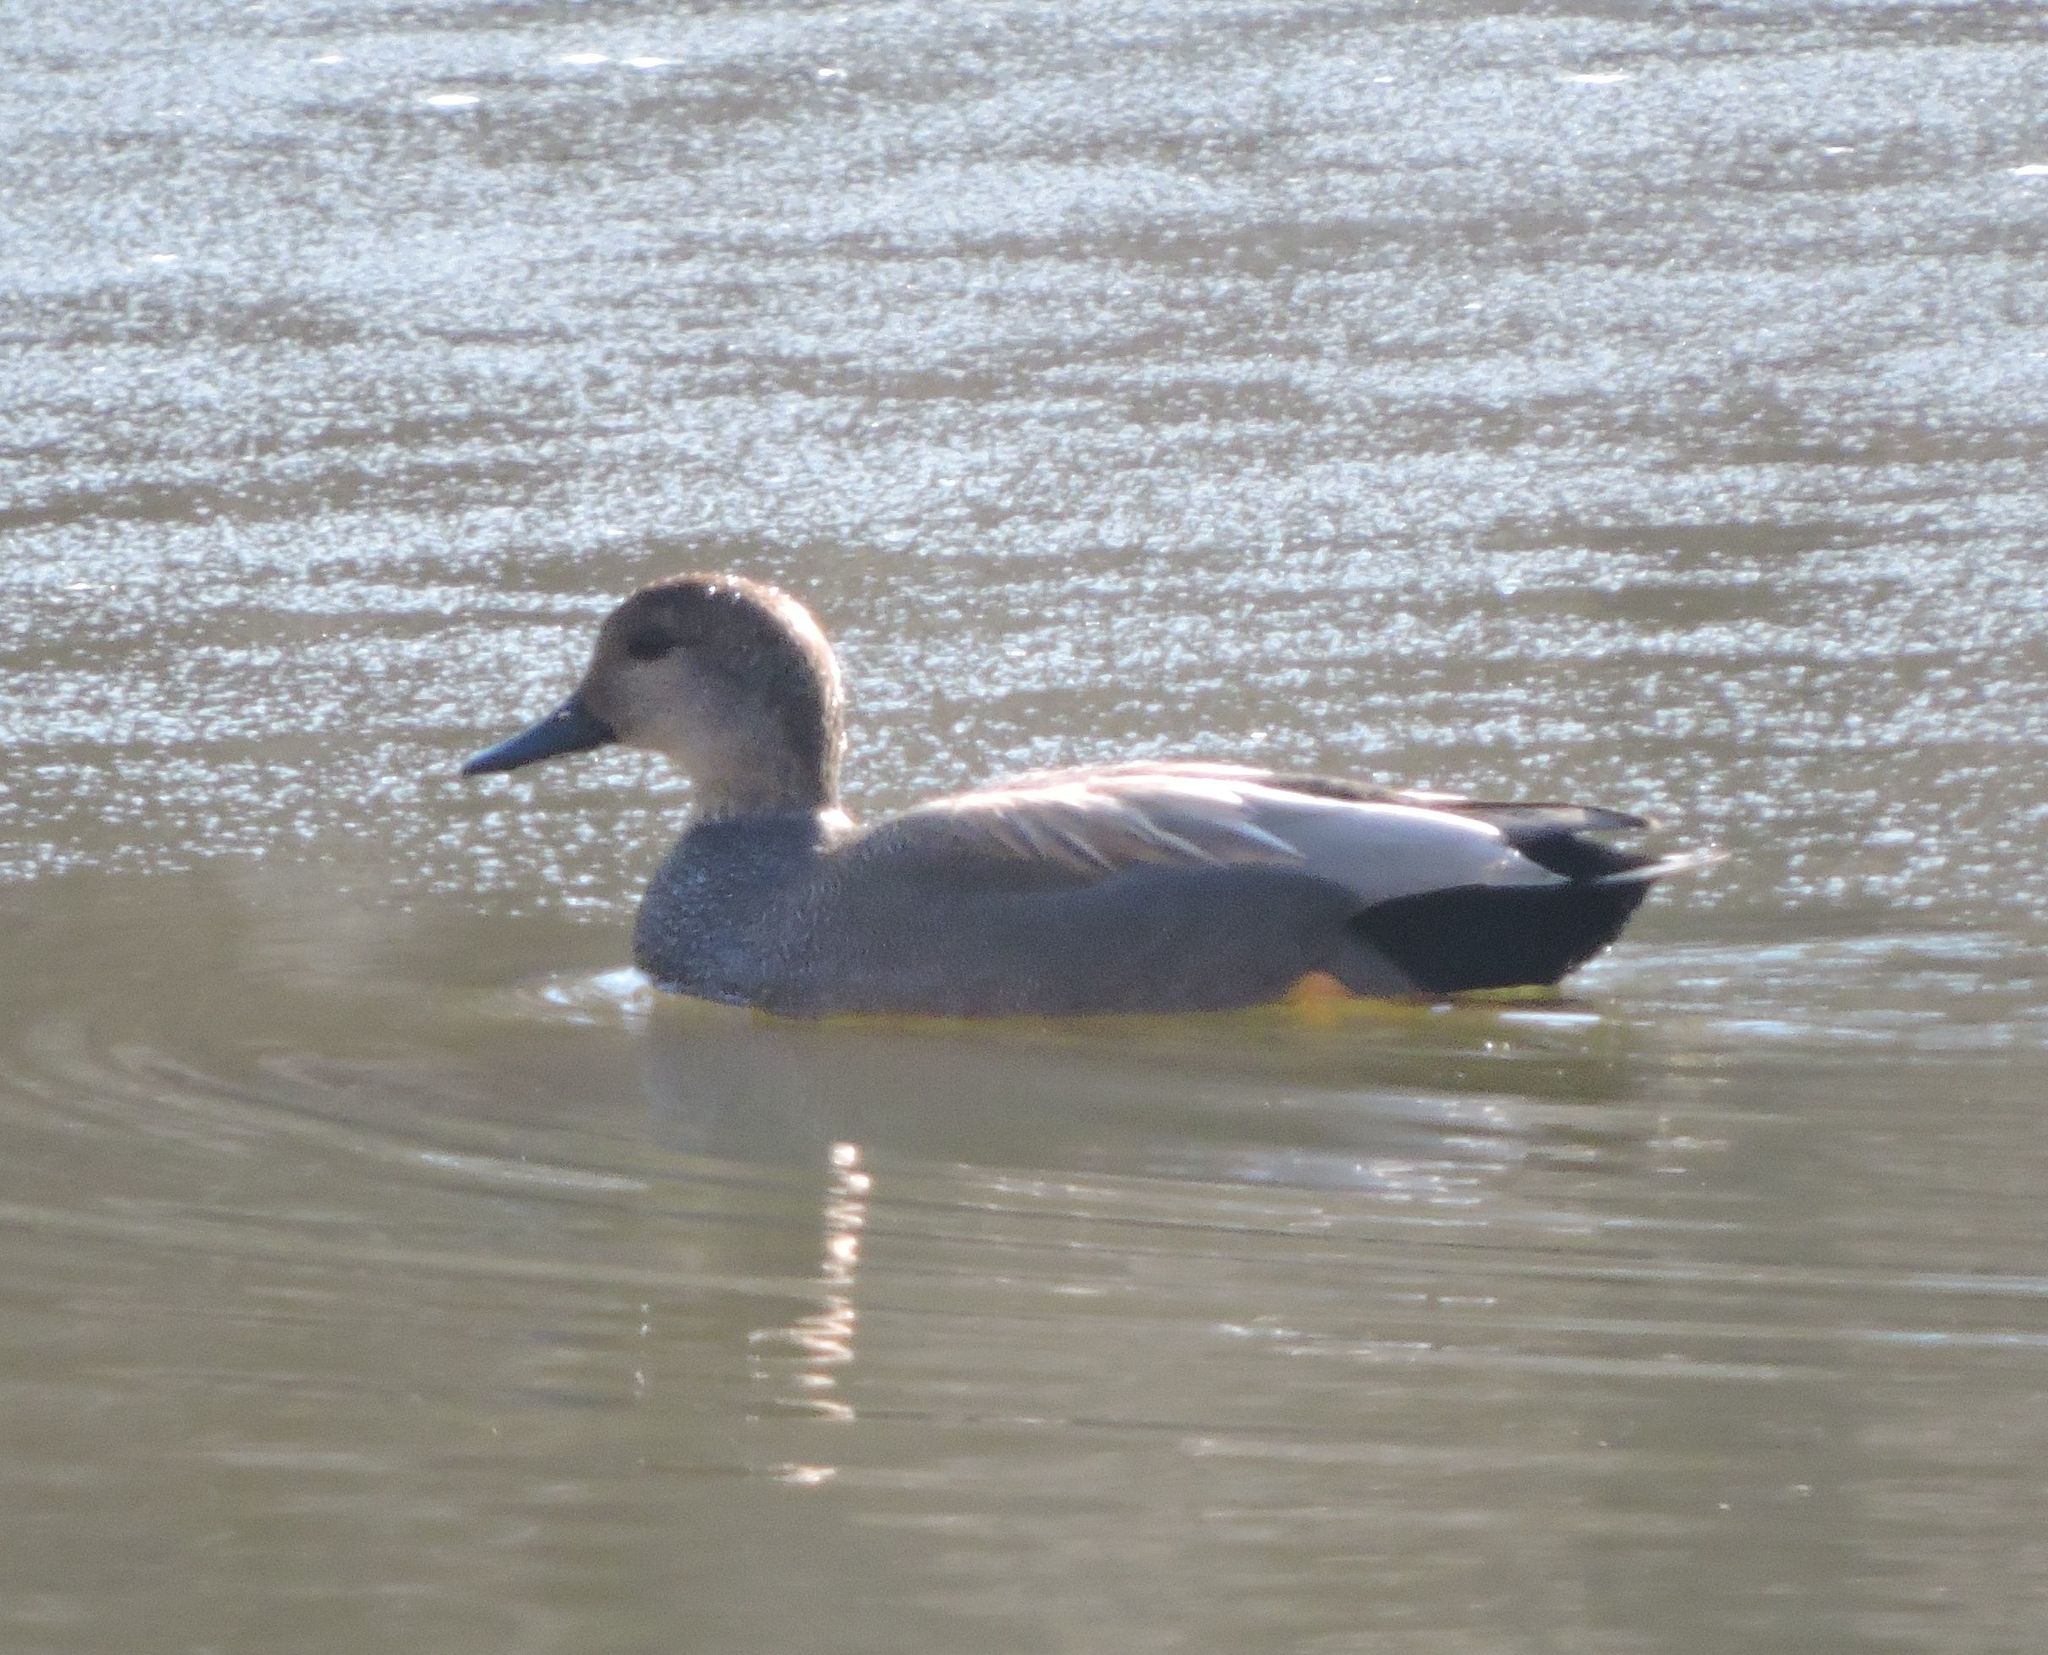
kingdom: Animalia
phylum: Chordata
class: Aves
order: Anseriformes
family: Anatidae
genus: Mareca
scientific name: Mareca strepera
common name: Gadwall
